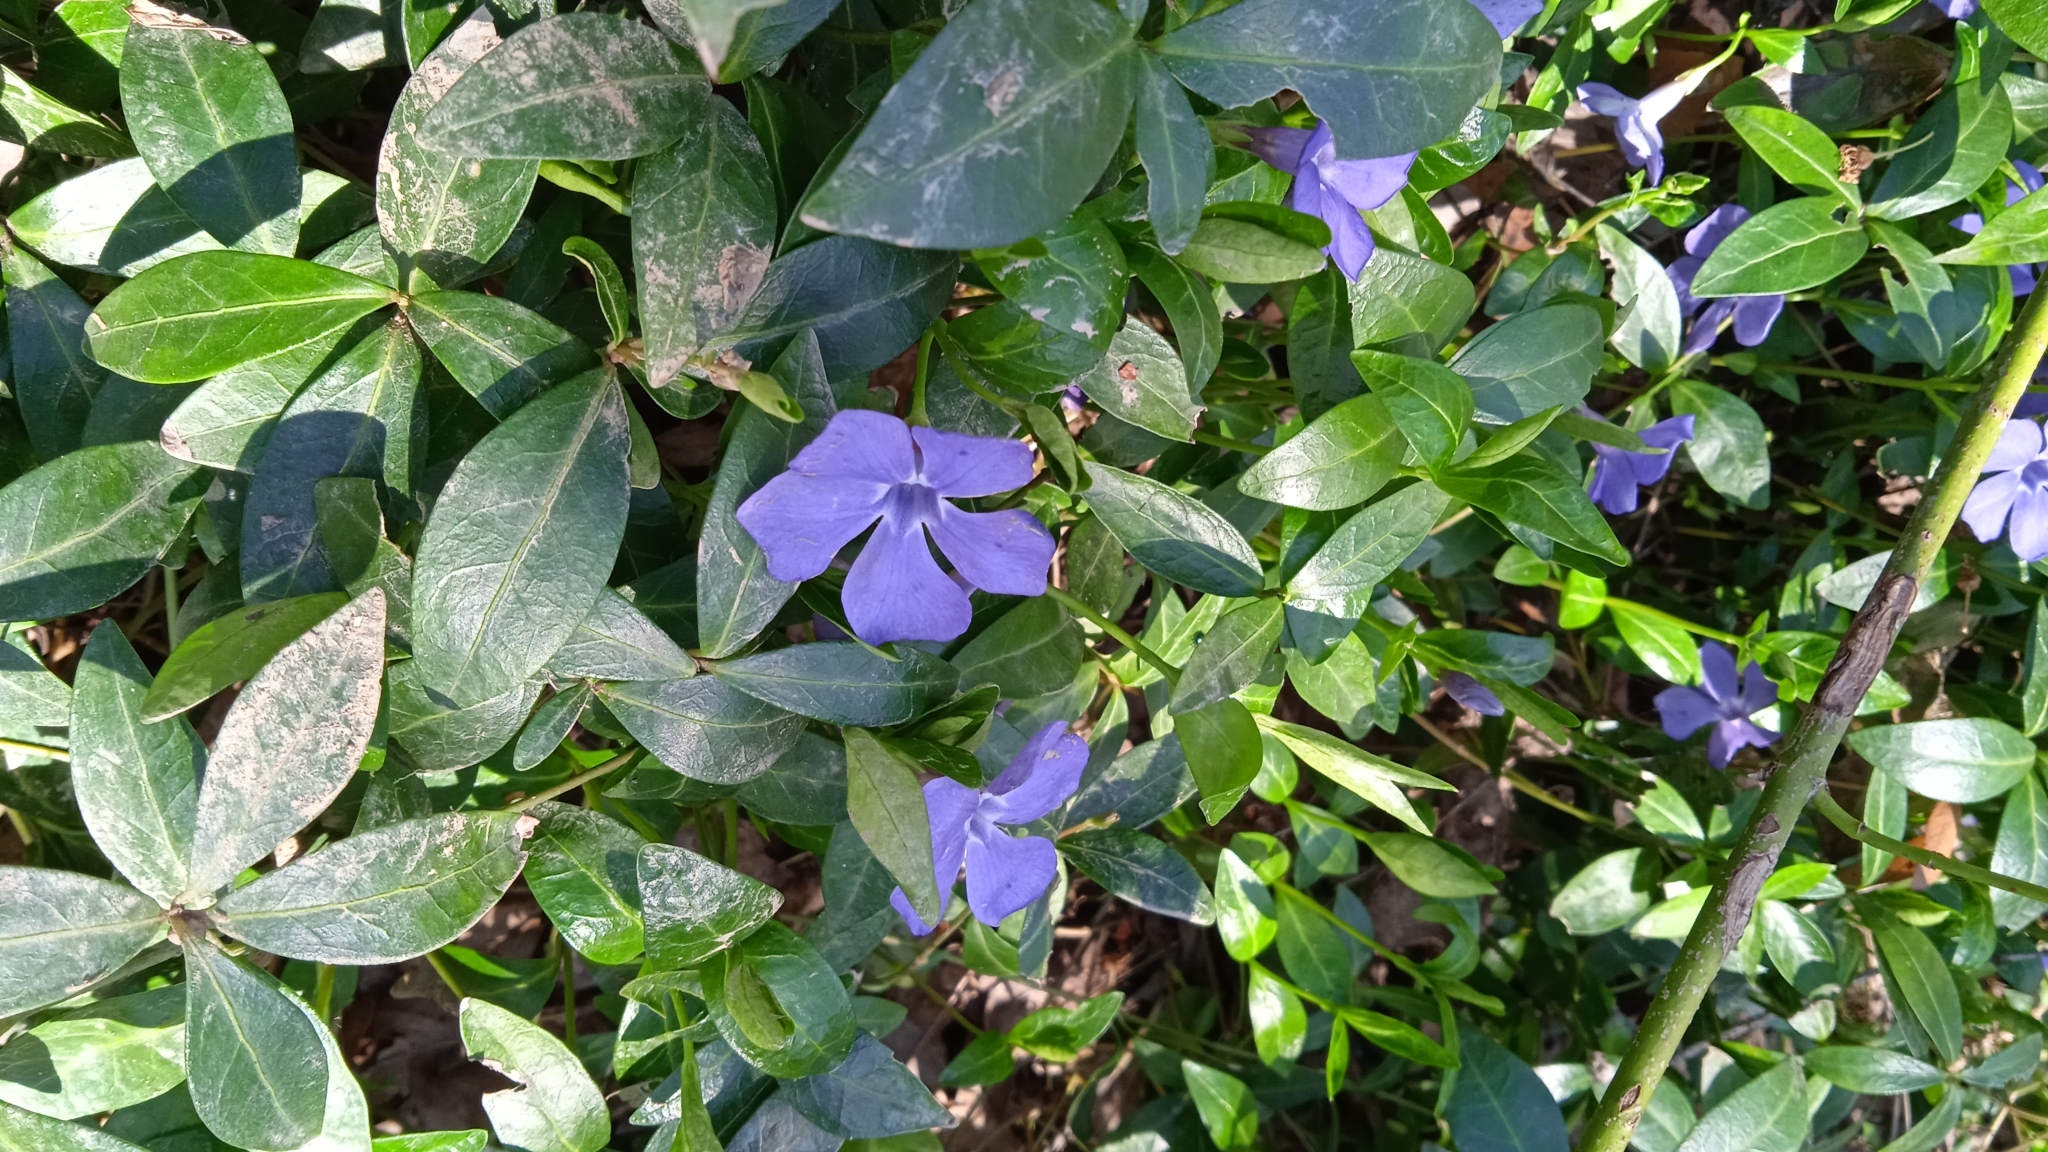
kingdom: Plantae
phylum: Tracheophyta
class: Magnoliopsida
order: Gentianales
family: Apocynaceae
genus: Vinca
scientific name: Vinca minor
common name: Lesser periwinkle
